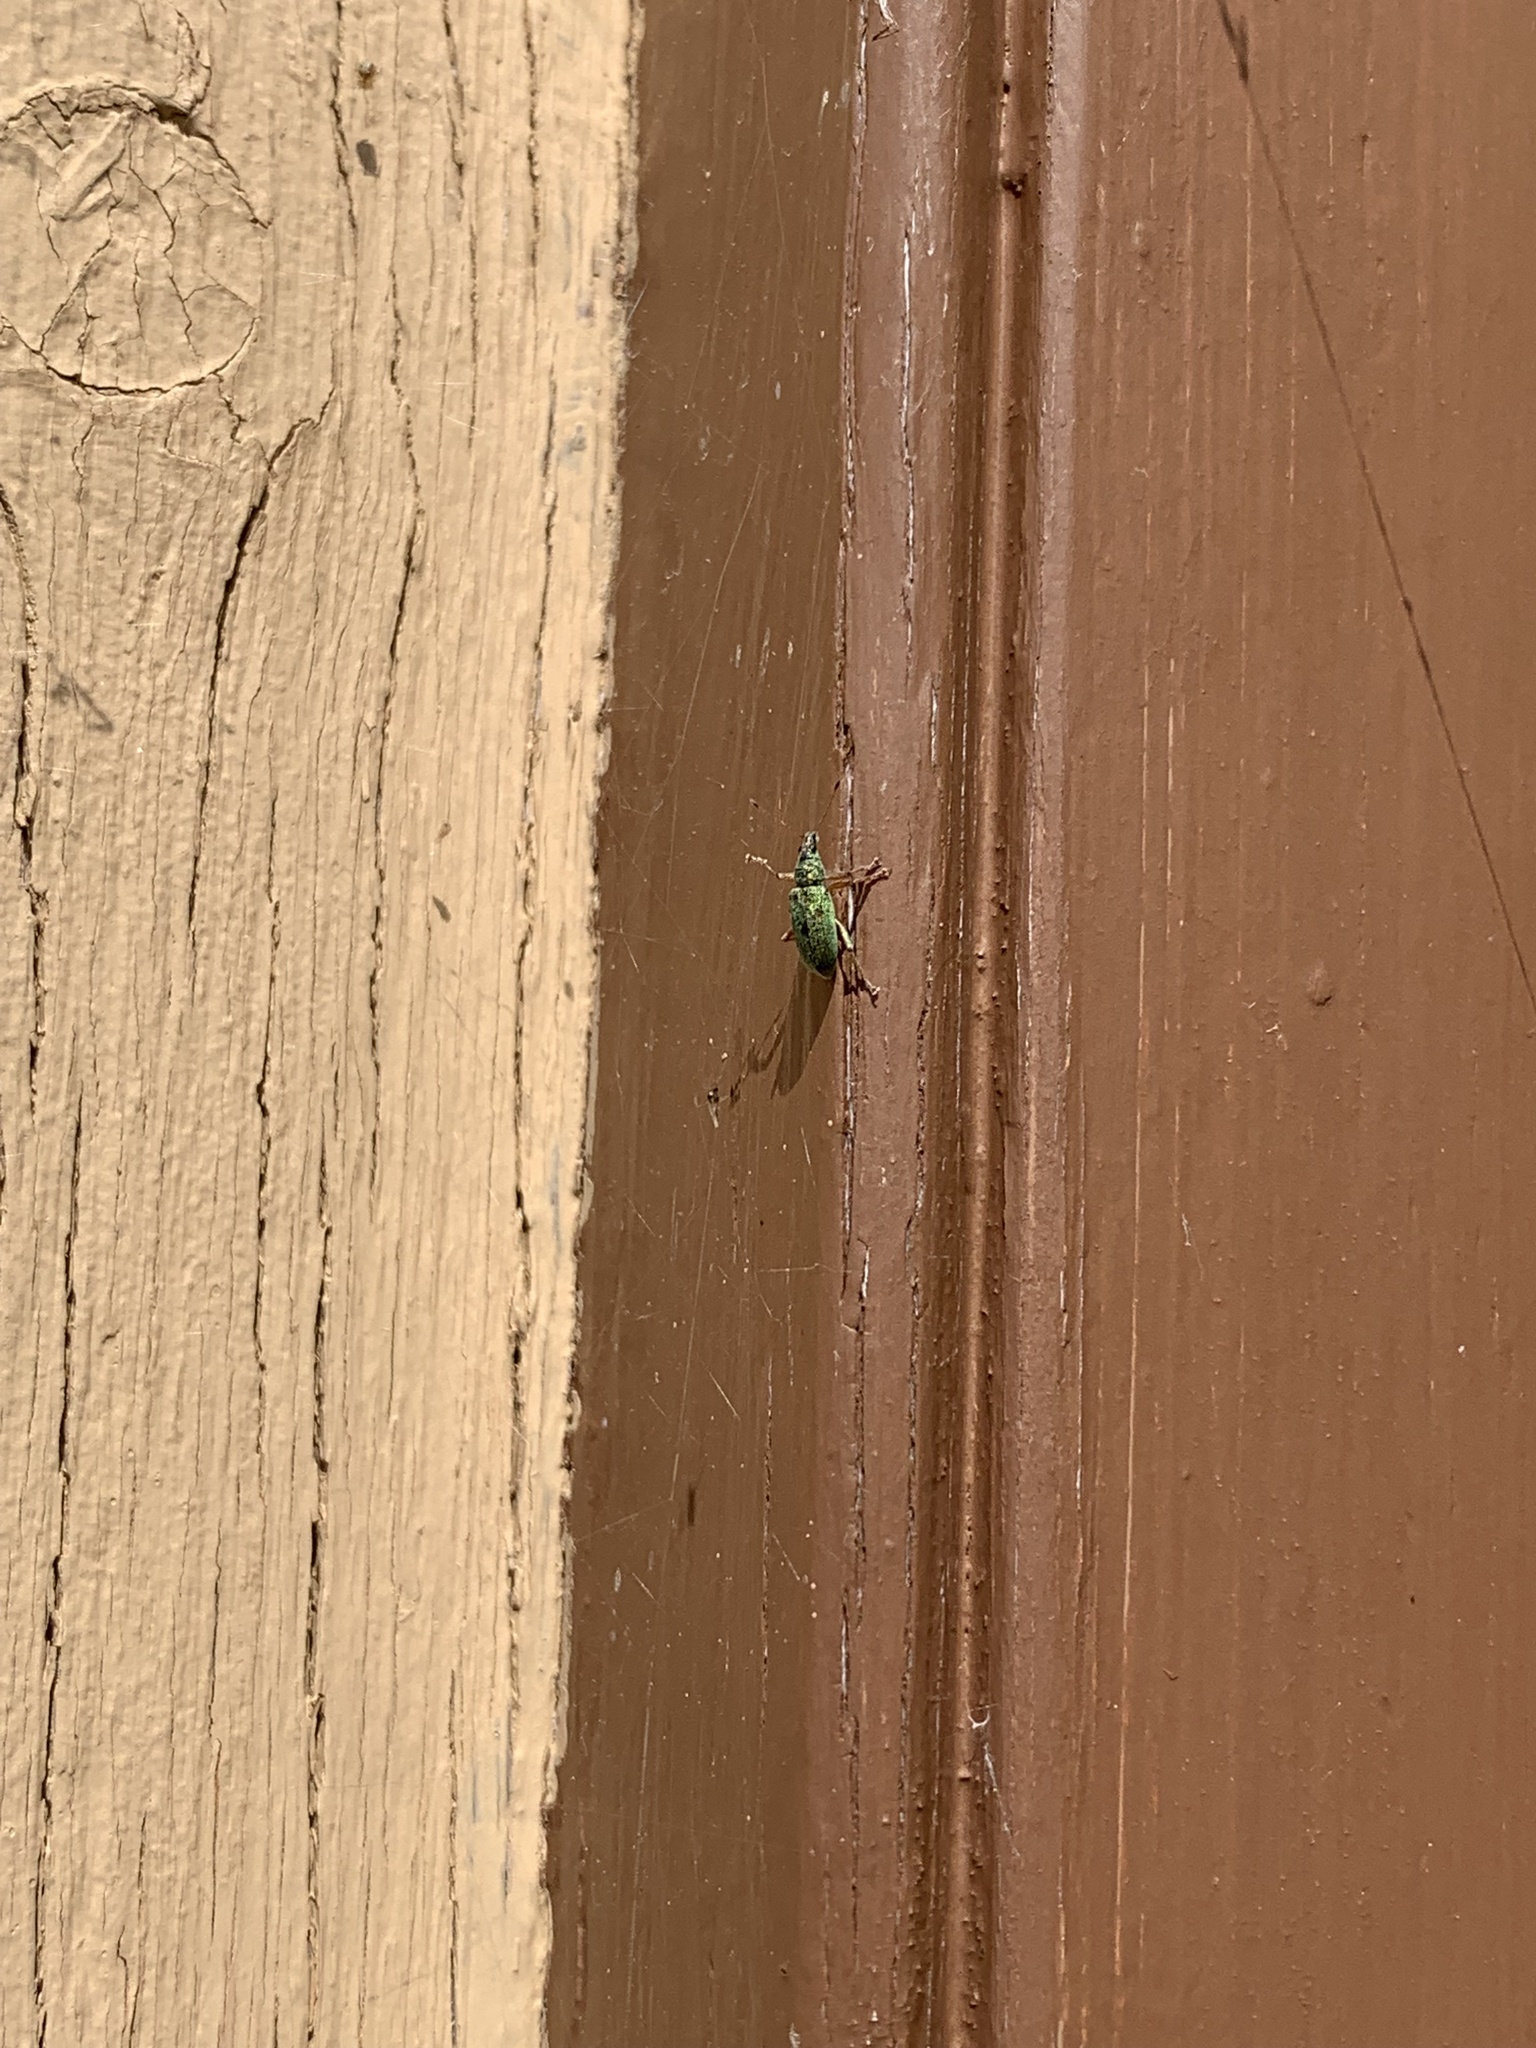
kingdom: Animalia
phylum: Arthropoda
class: Insecta
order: Coleoptera
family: Curculionidae
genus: Polydrusus
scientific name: Polydrusus formosus
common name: Weevil
